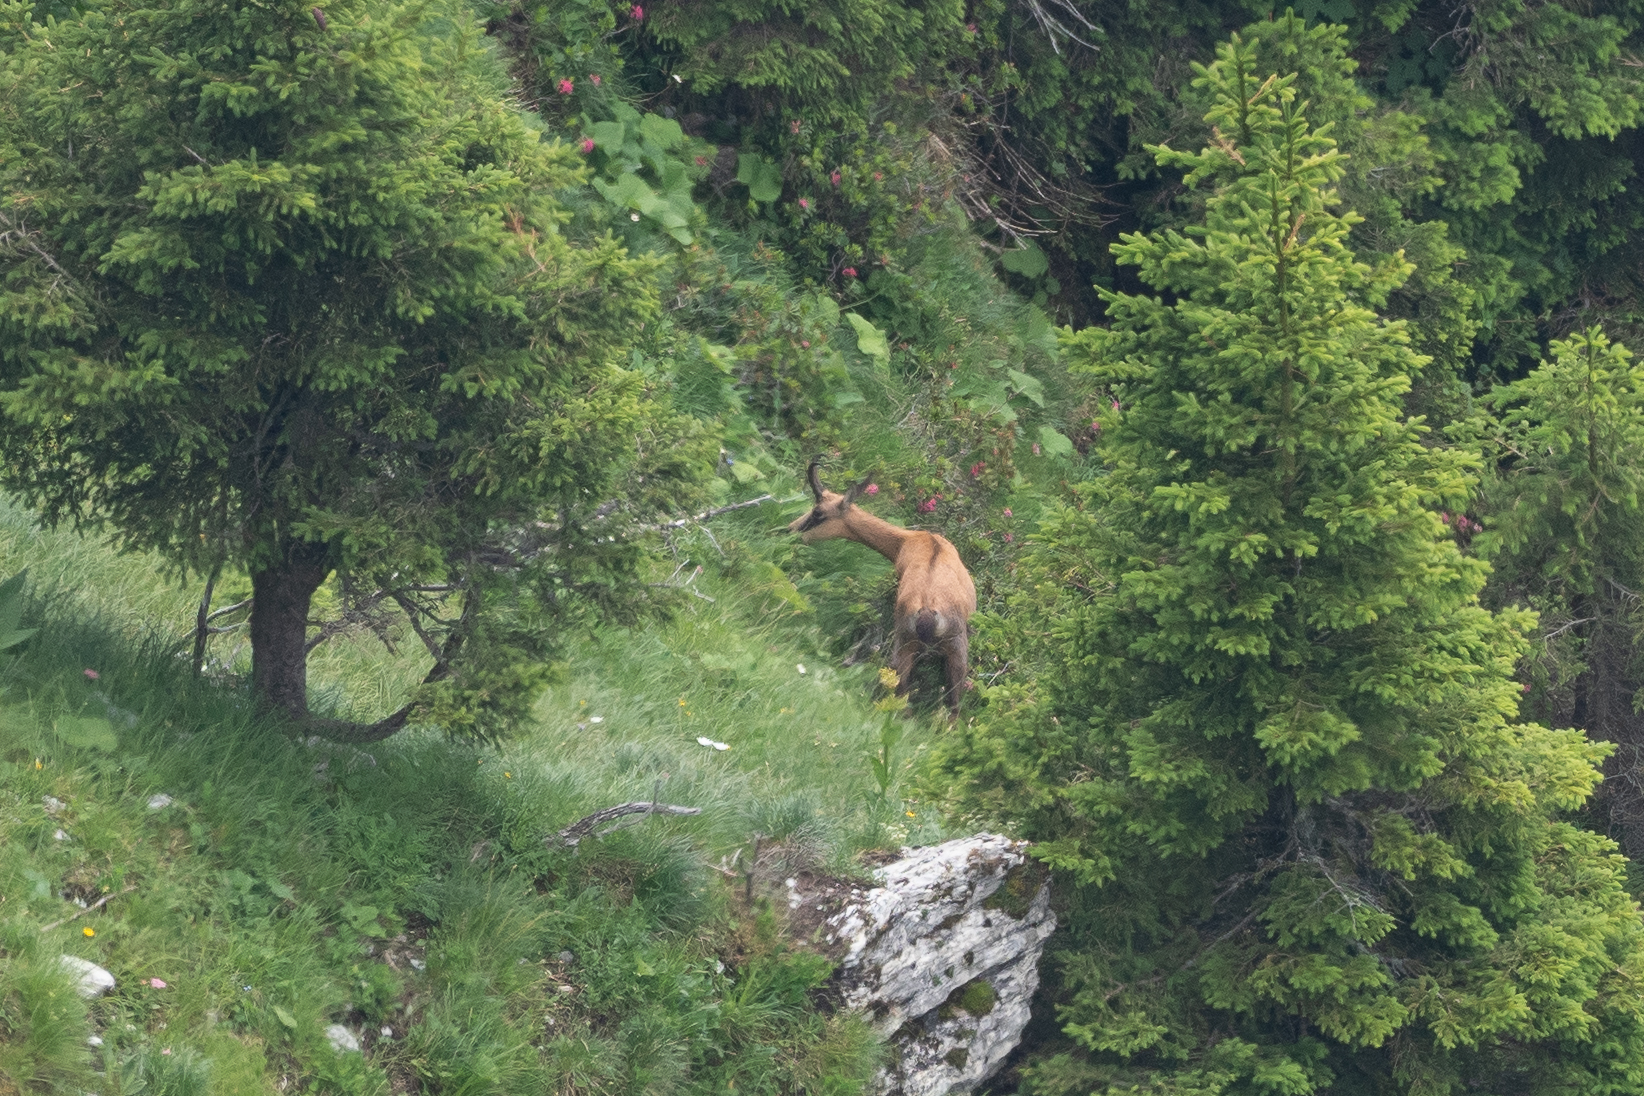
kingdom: Animalia
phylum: Chordata
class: Mammalia
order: Artiodactyla
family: Bovidae
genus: Rupicapra
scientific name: Rupicapra rupicapra
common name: Chamois
